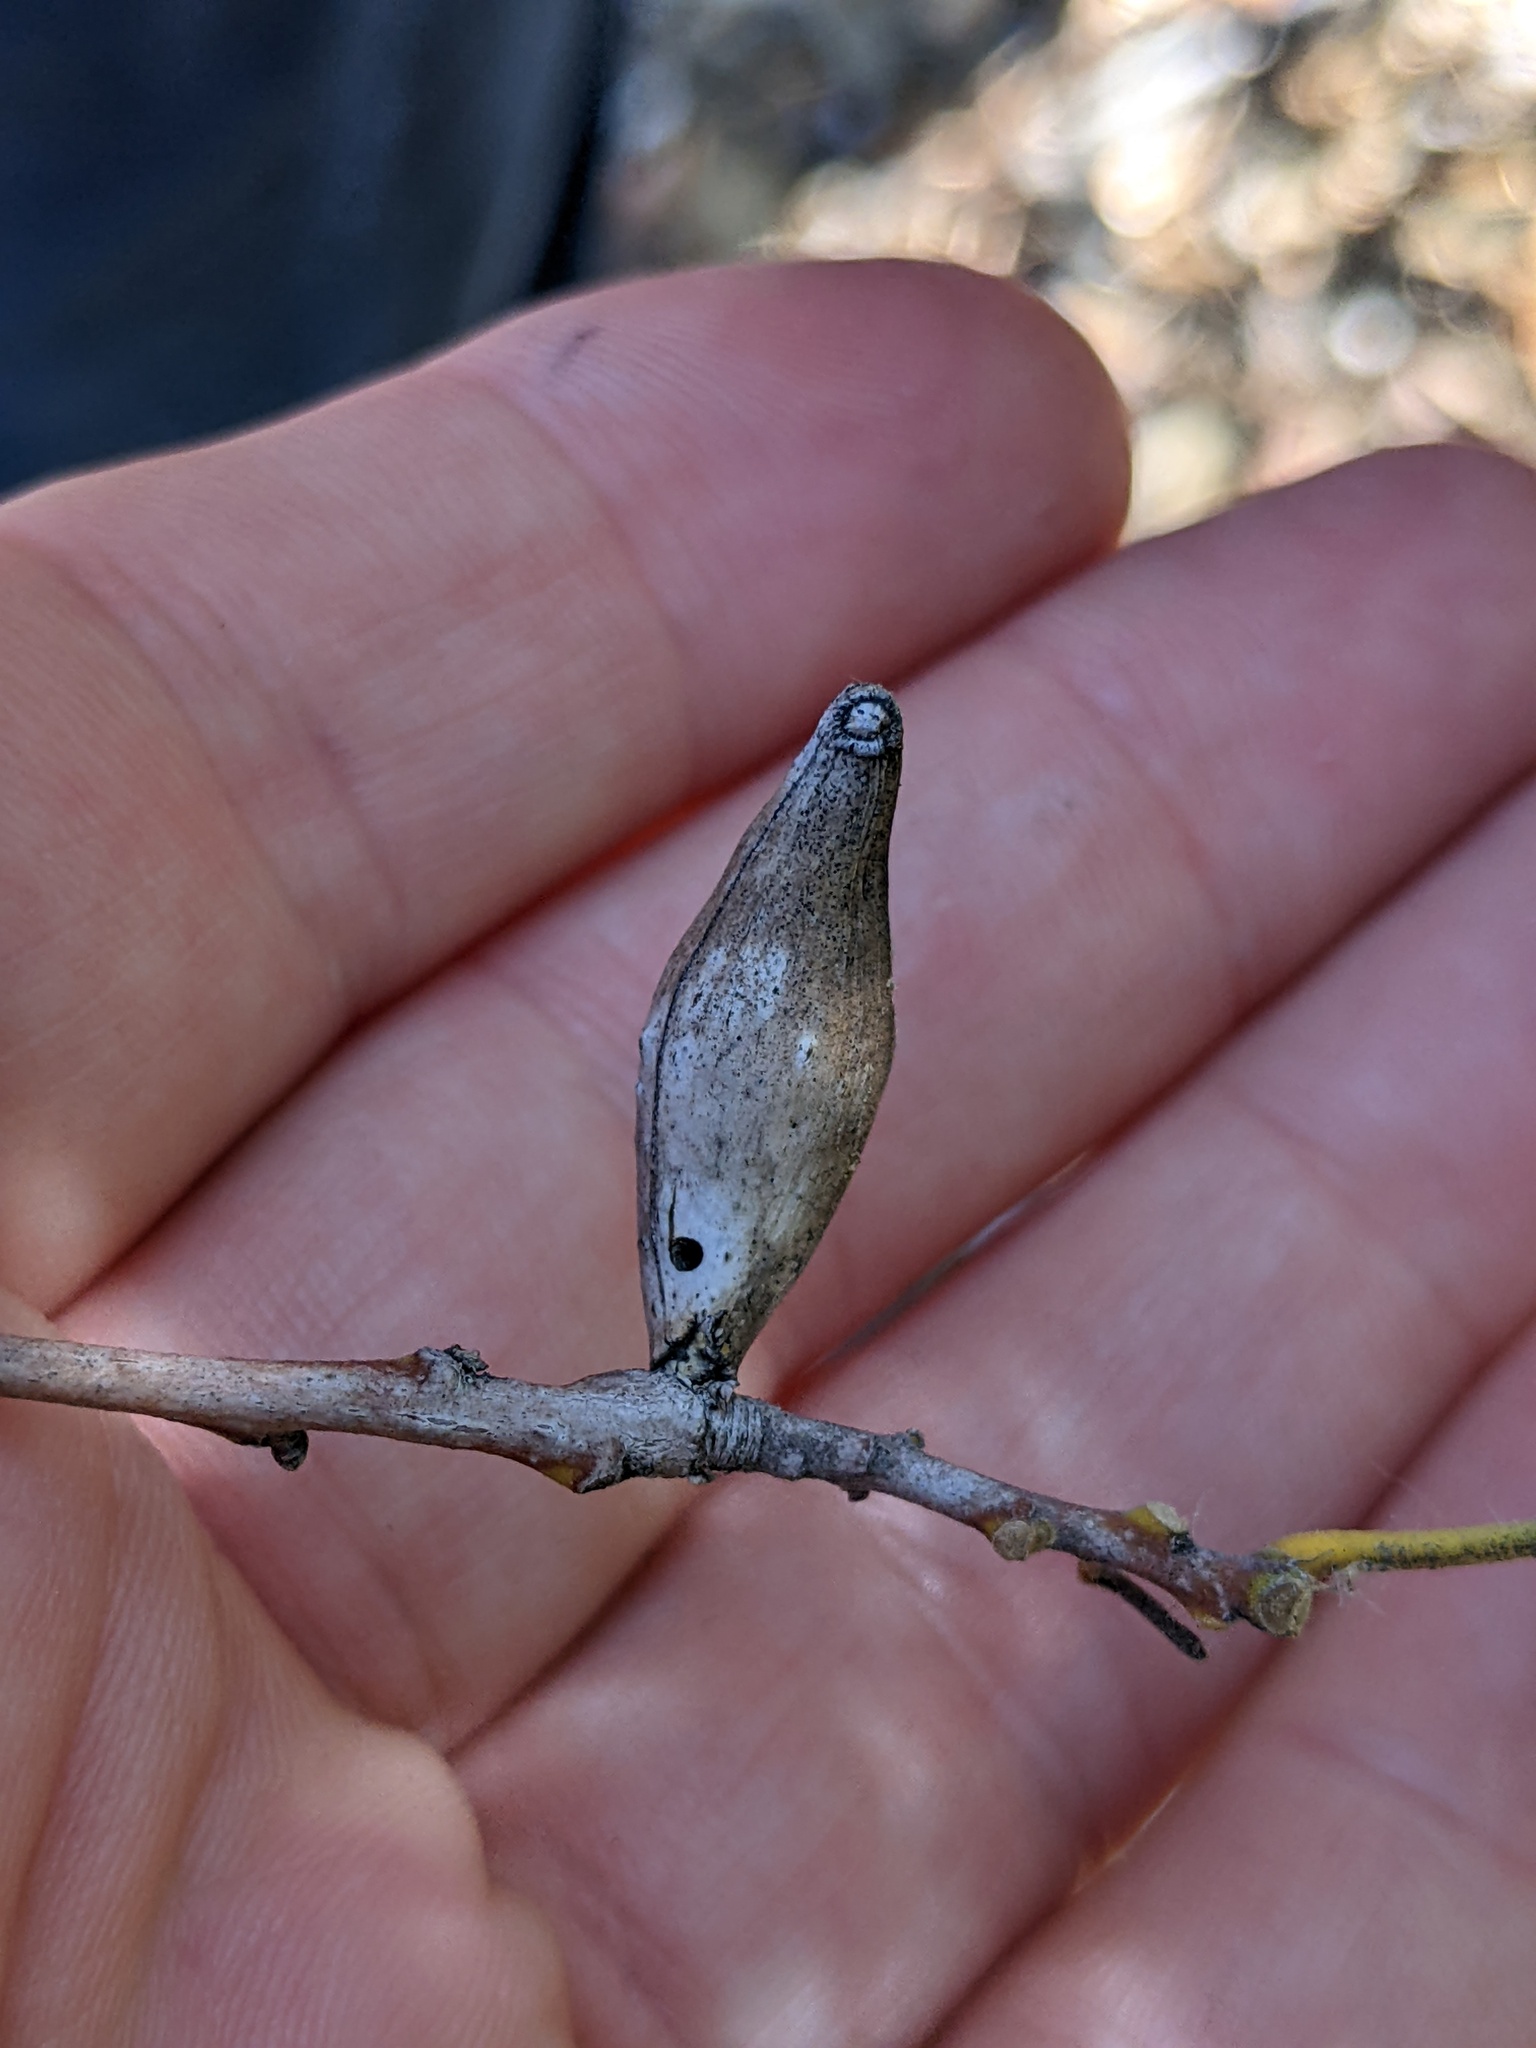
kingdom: Animalia
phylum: Arthropoda
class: Insecta
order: Hymenoptera
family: Cynipidae
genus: Heteroecus
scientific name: Heteroecus pacificus
